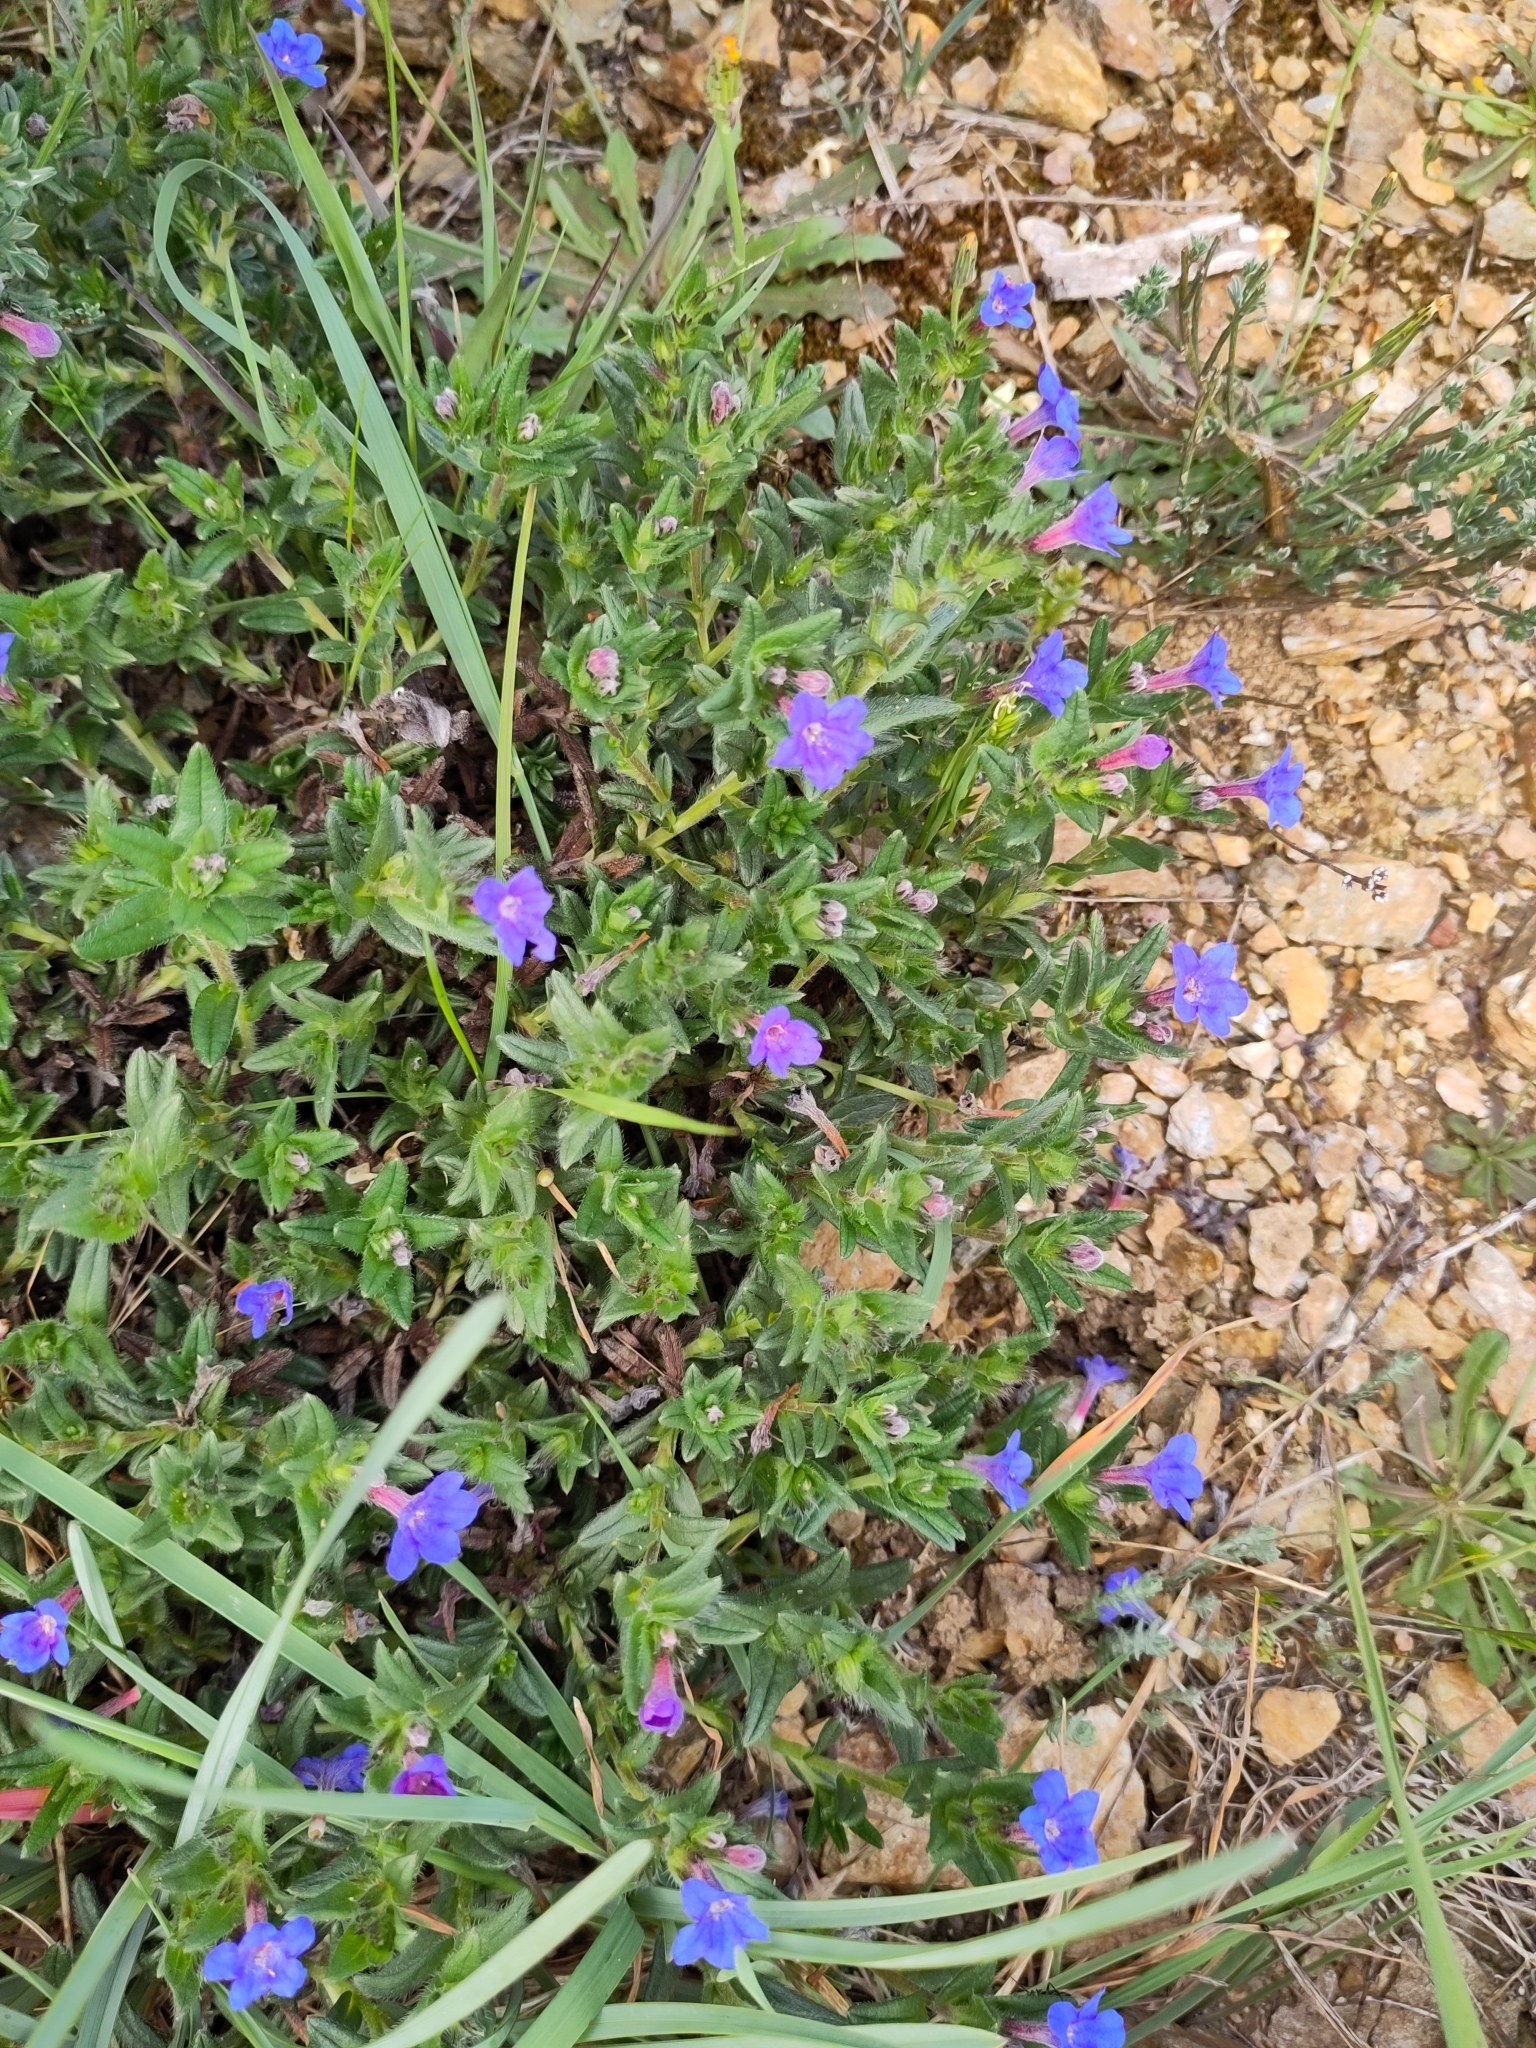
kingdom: Plantae
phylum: Tracheophyta
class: Magnoliopsida
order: Boraginales
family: Boraginaceae
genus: Glandora
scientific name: Glandora prostrata
